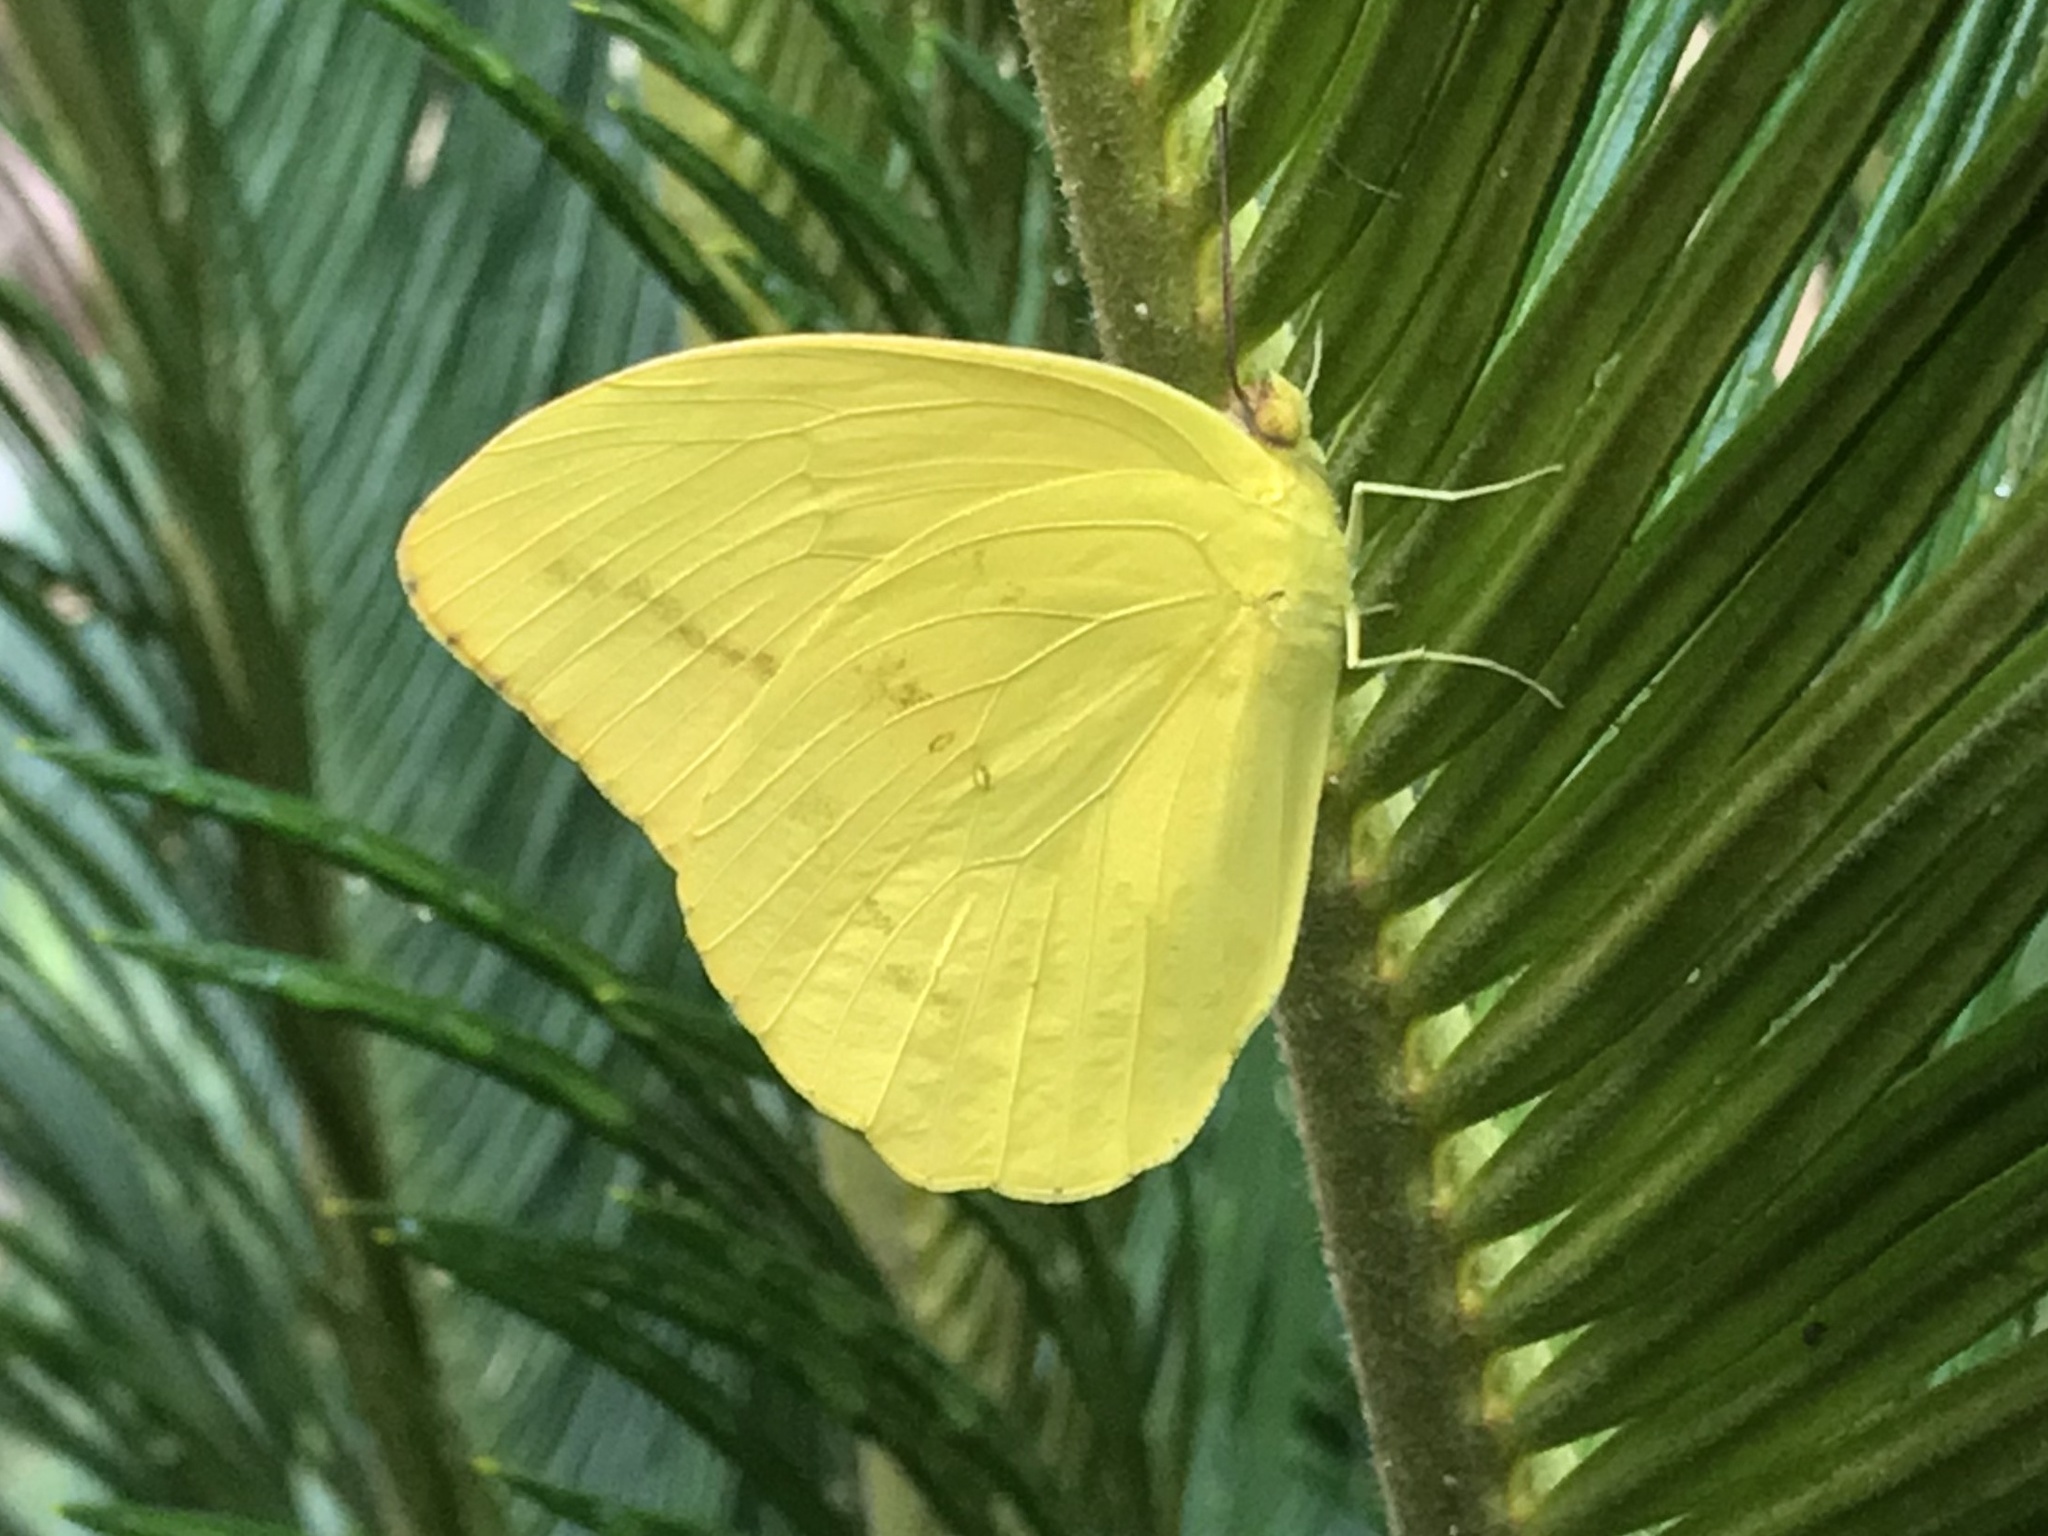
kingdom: Animalia
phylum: Arthropoda
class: Insecta
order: Lepidoptera
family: Pieridae
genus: Phoebis
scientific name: Phoebis agarithe
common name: Large orange sulphur
